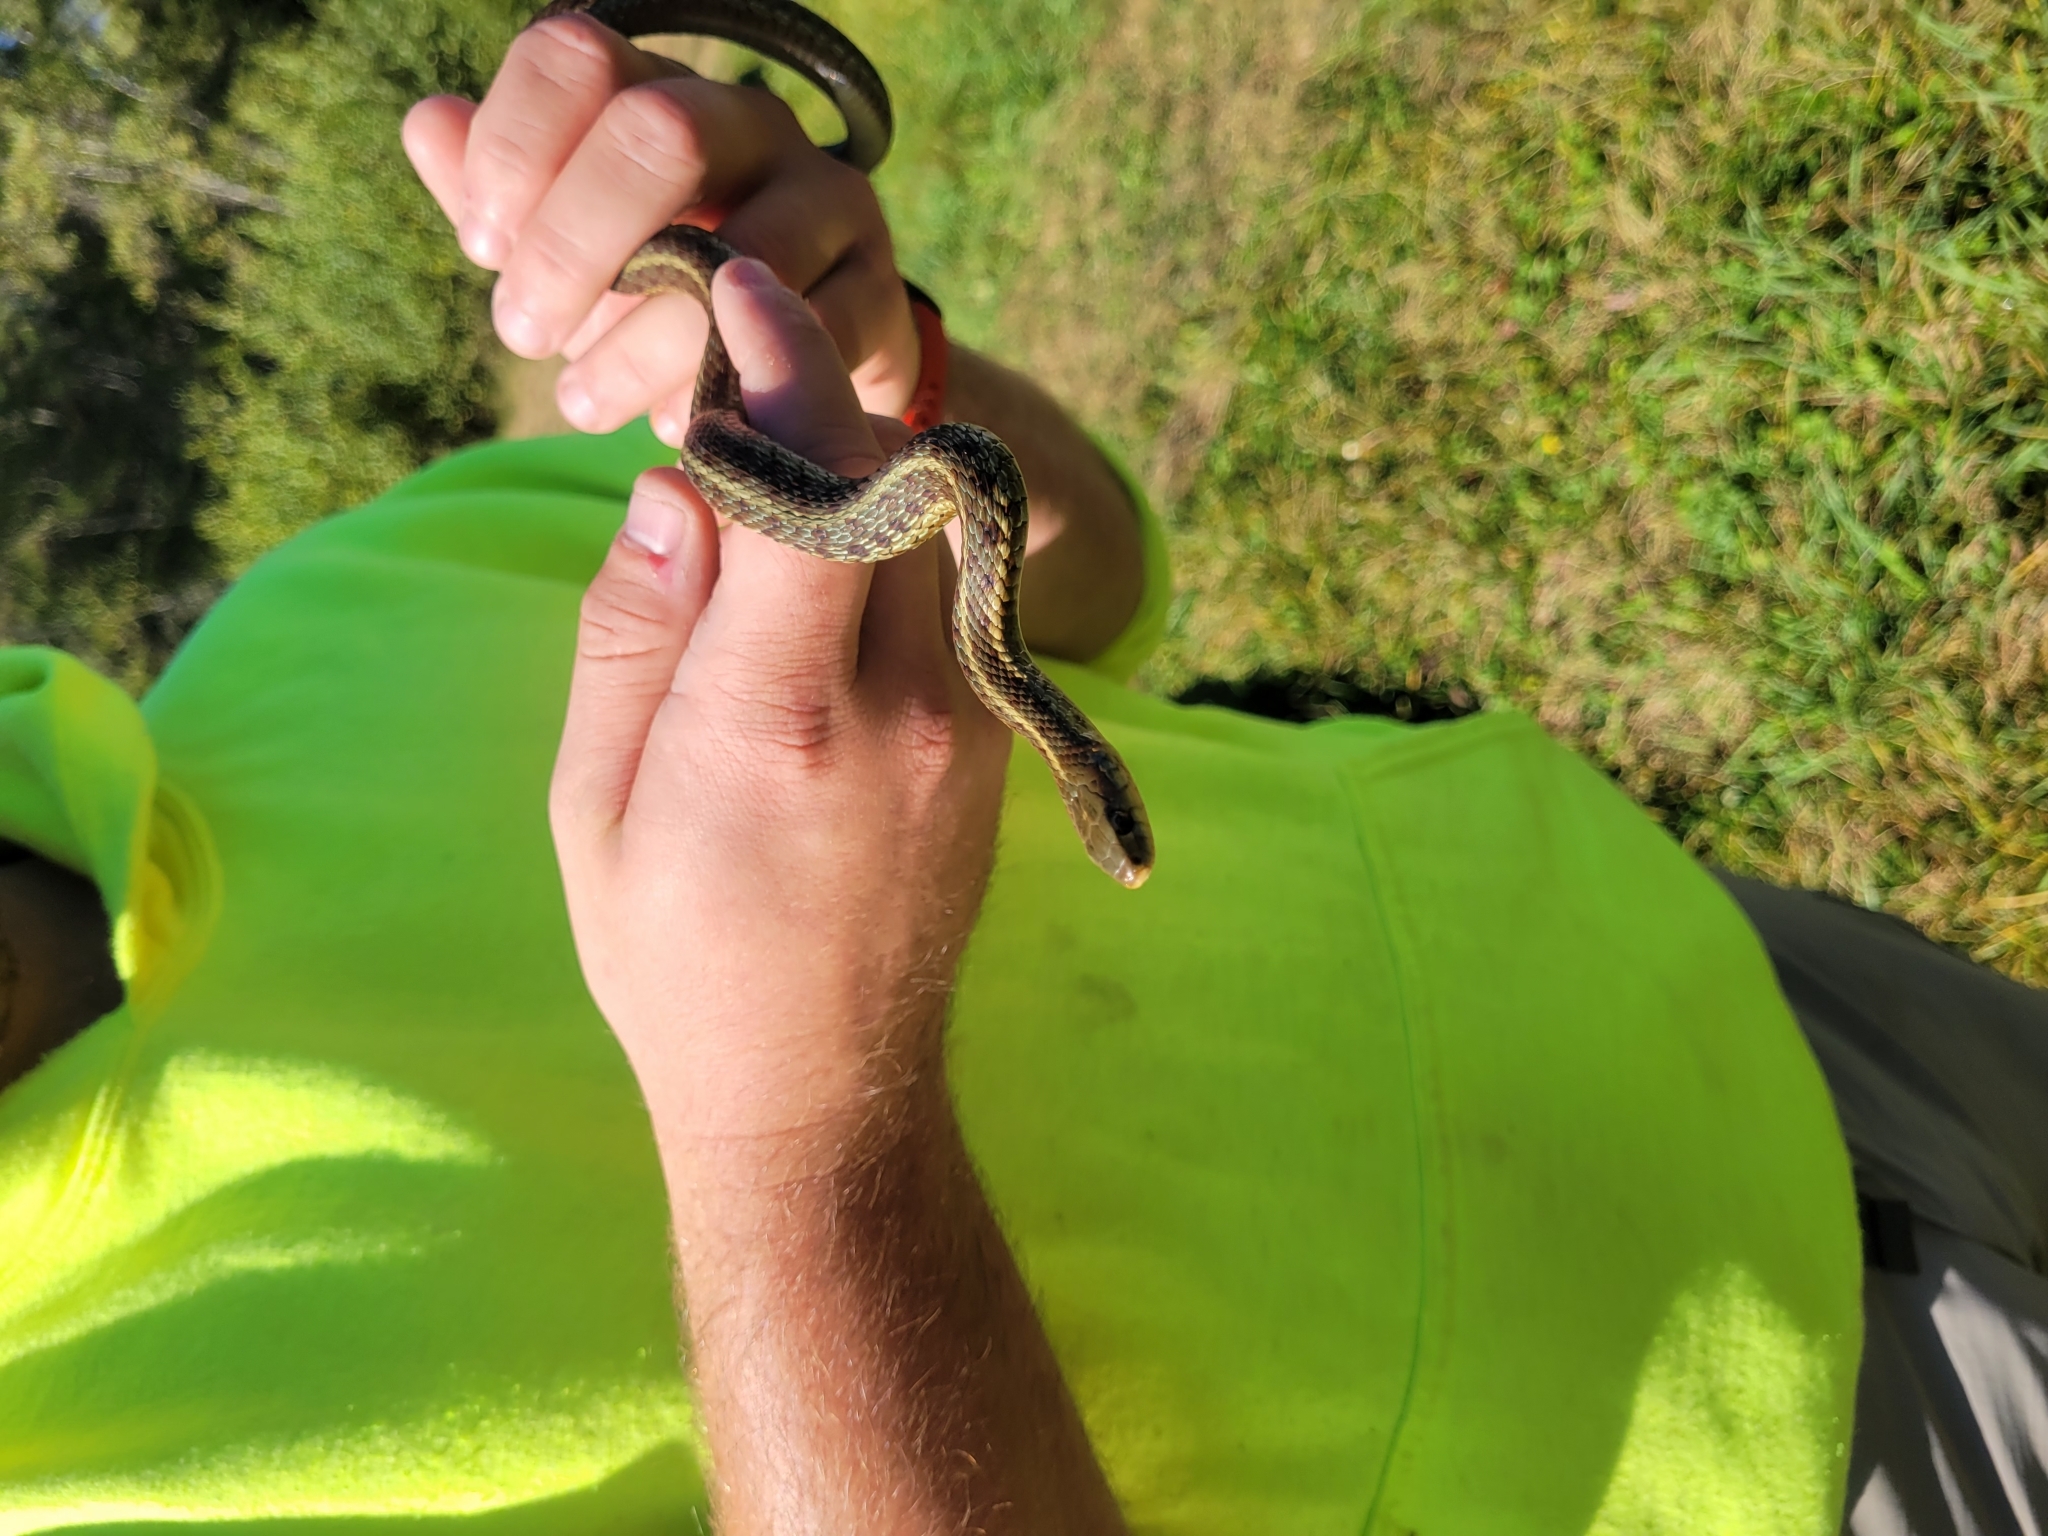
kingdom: Animalia
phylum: Chordata
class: Squamata
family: Colubridae
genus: Thamnophis
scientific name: Thamnophis sirtalis
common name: Common garter snake
